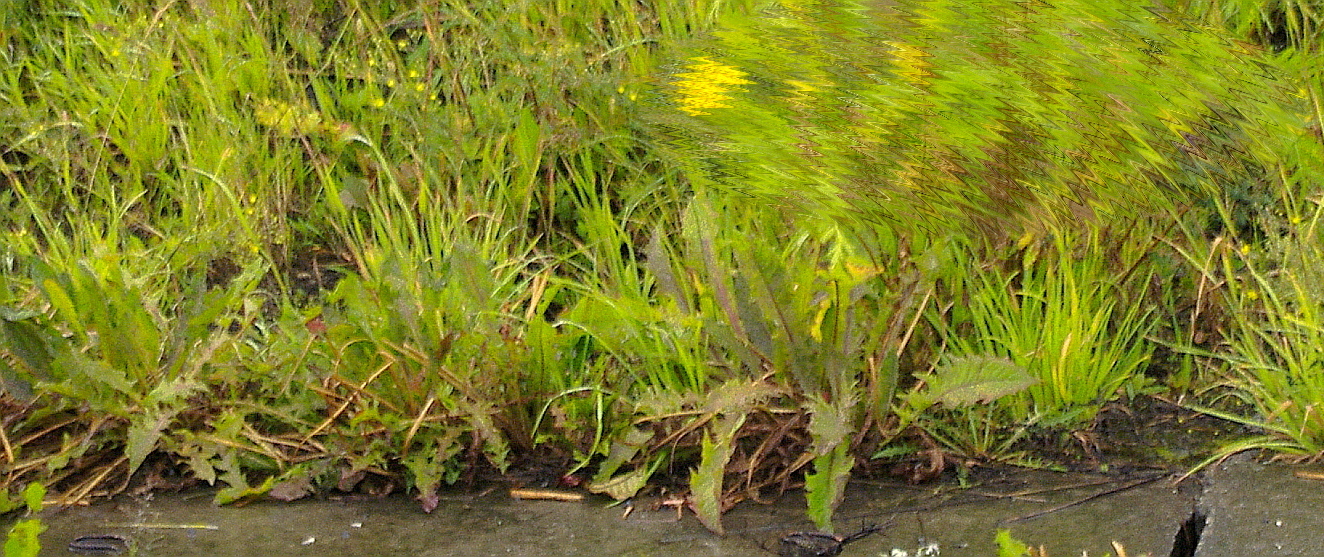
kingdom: Plantae
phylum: Tracheophyta
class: Magnoliopsida
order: Asterales
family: Asteraceae
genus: Taraxacum
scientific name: Taraxacum officinale
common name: Common dandelion
